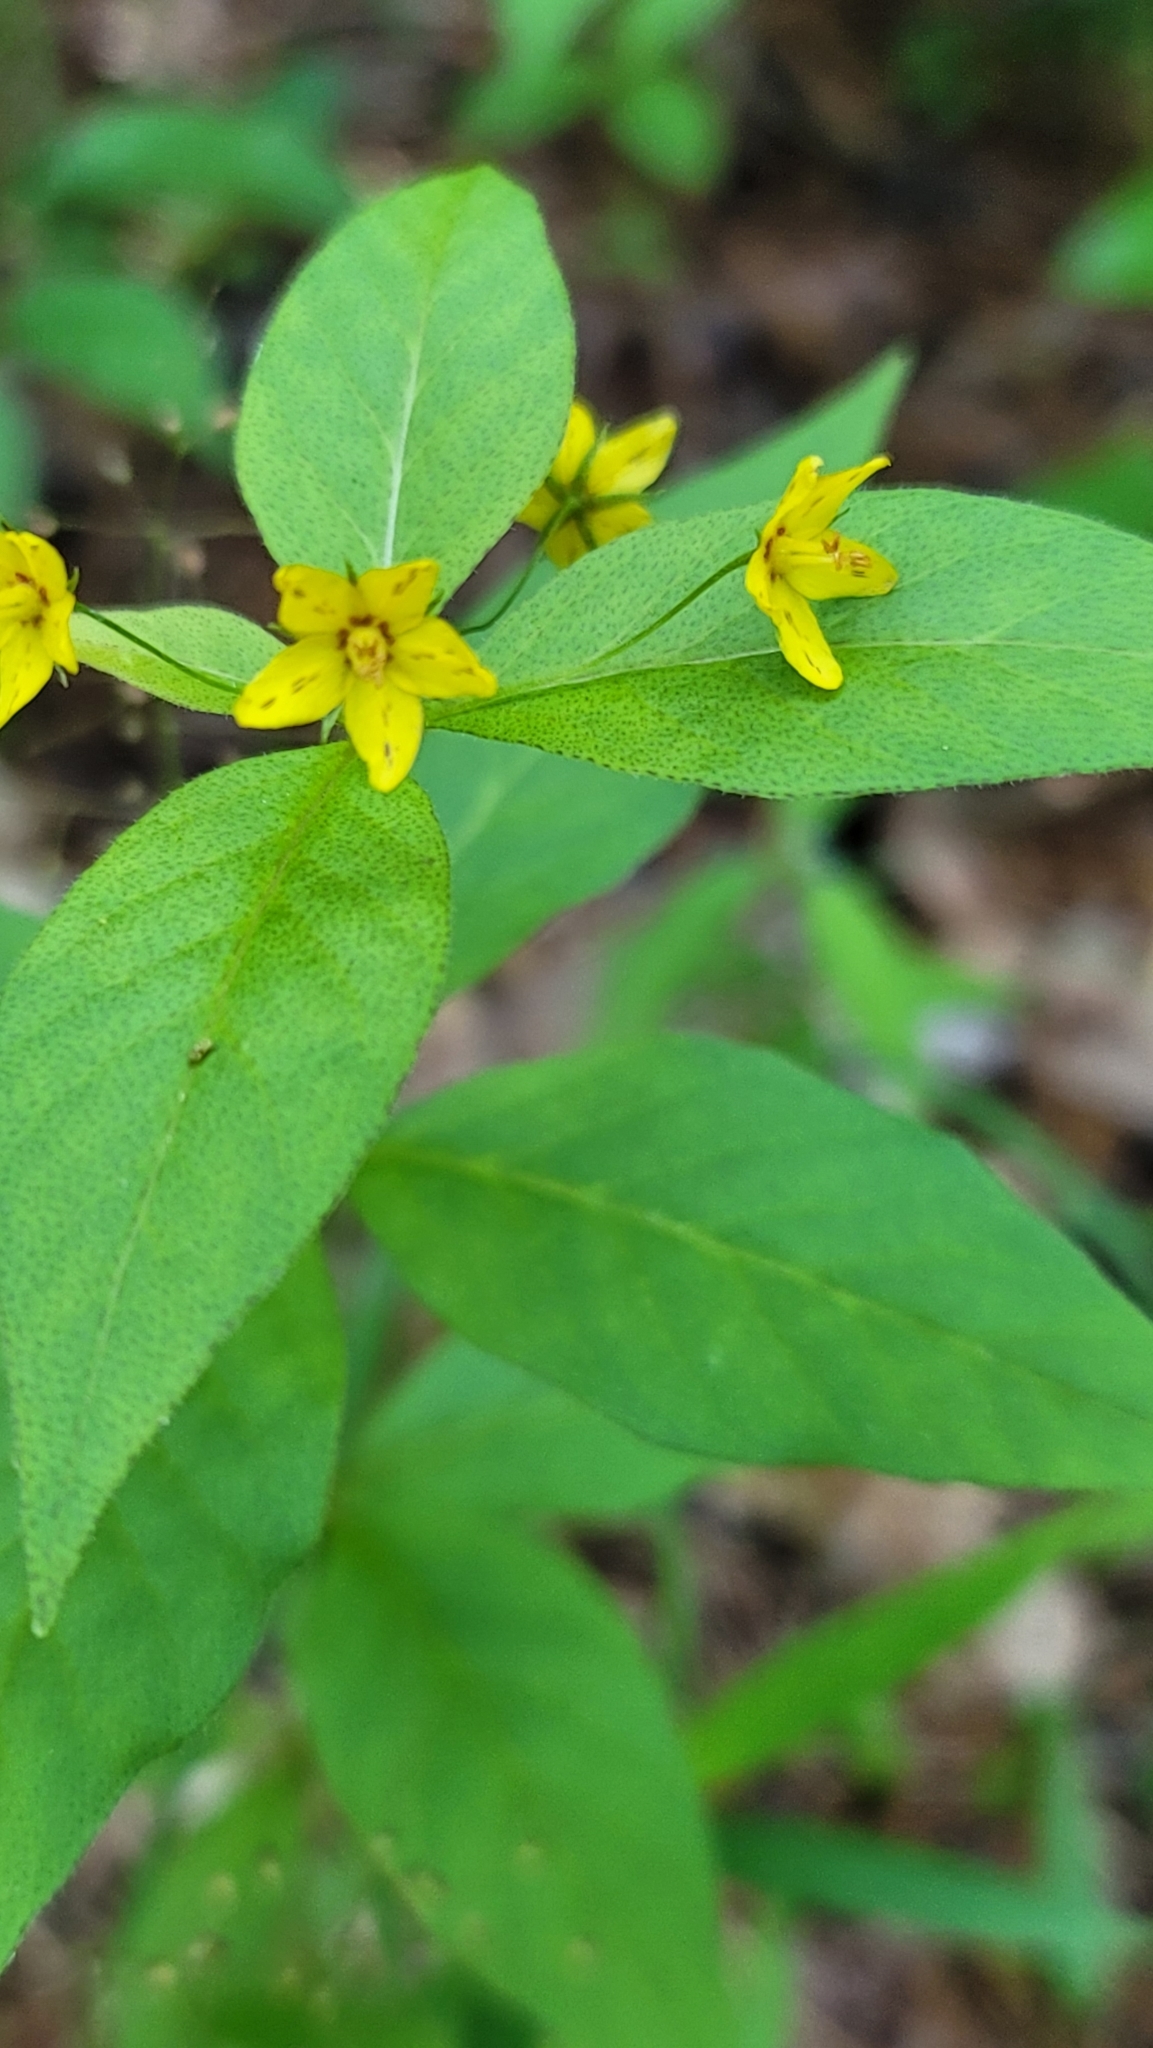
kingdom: Plantae
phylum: Tracheophyta
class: Magnoliopsida
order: Ericales
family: Primulaceae
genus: Lysimachia
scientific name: Lysimachia quadrifolia
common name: Whorled loosestrife
